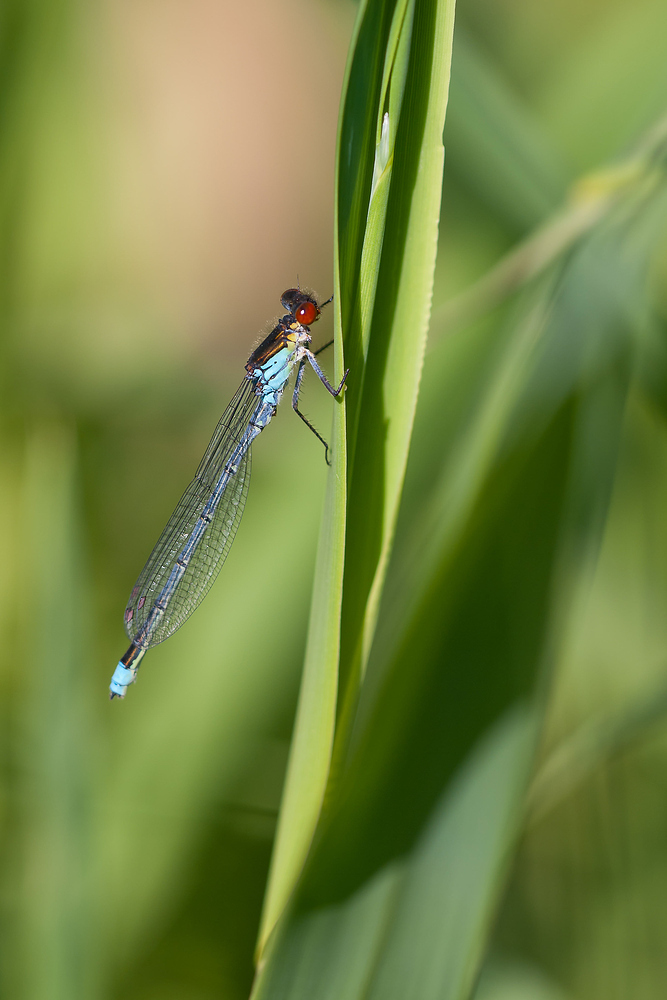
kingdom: Animalia
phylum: Arthropoda
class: Insecta
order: Odonata
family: Coenagrionidae
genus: Erythromma
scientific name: Erythromma najas
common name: Red-eyed damselfly
